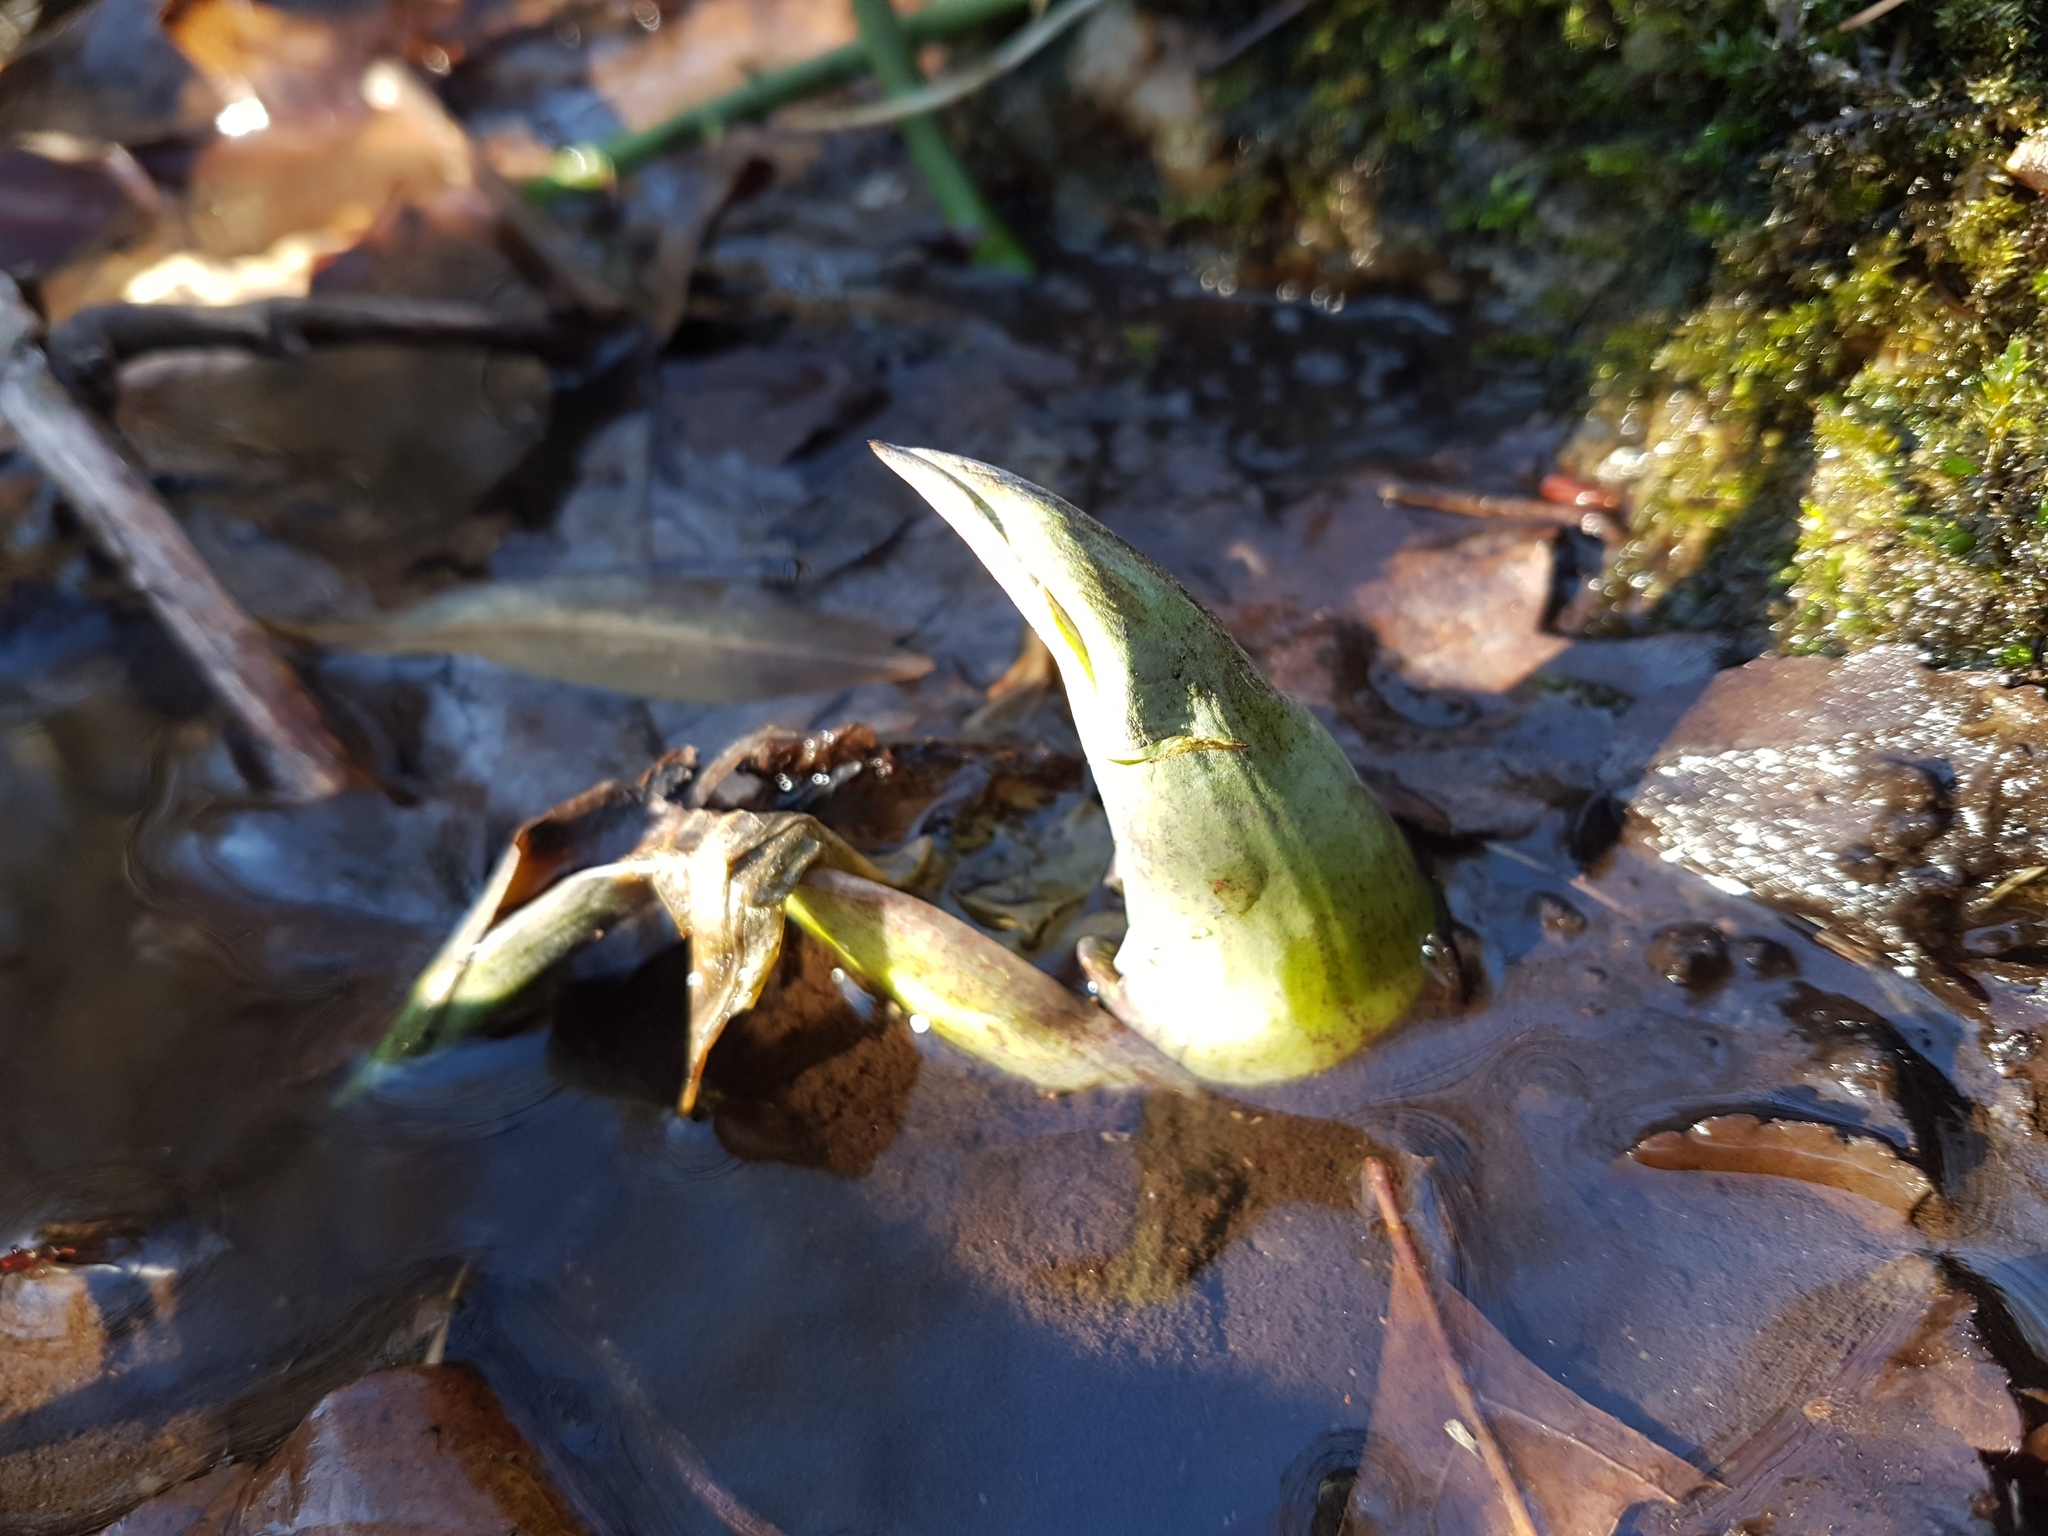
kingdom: Plantae
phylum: Tracheophyta
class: Liliopsida
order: Alismatales
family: Araceae
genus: Symplocarpus
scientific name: Symplocarpus foetidus
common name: Eastern skunk cabbage
